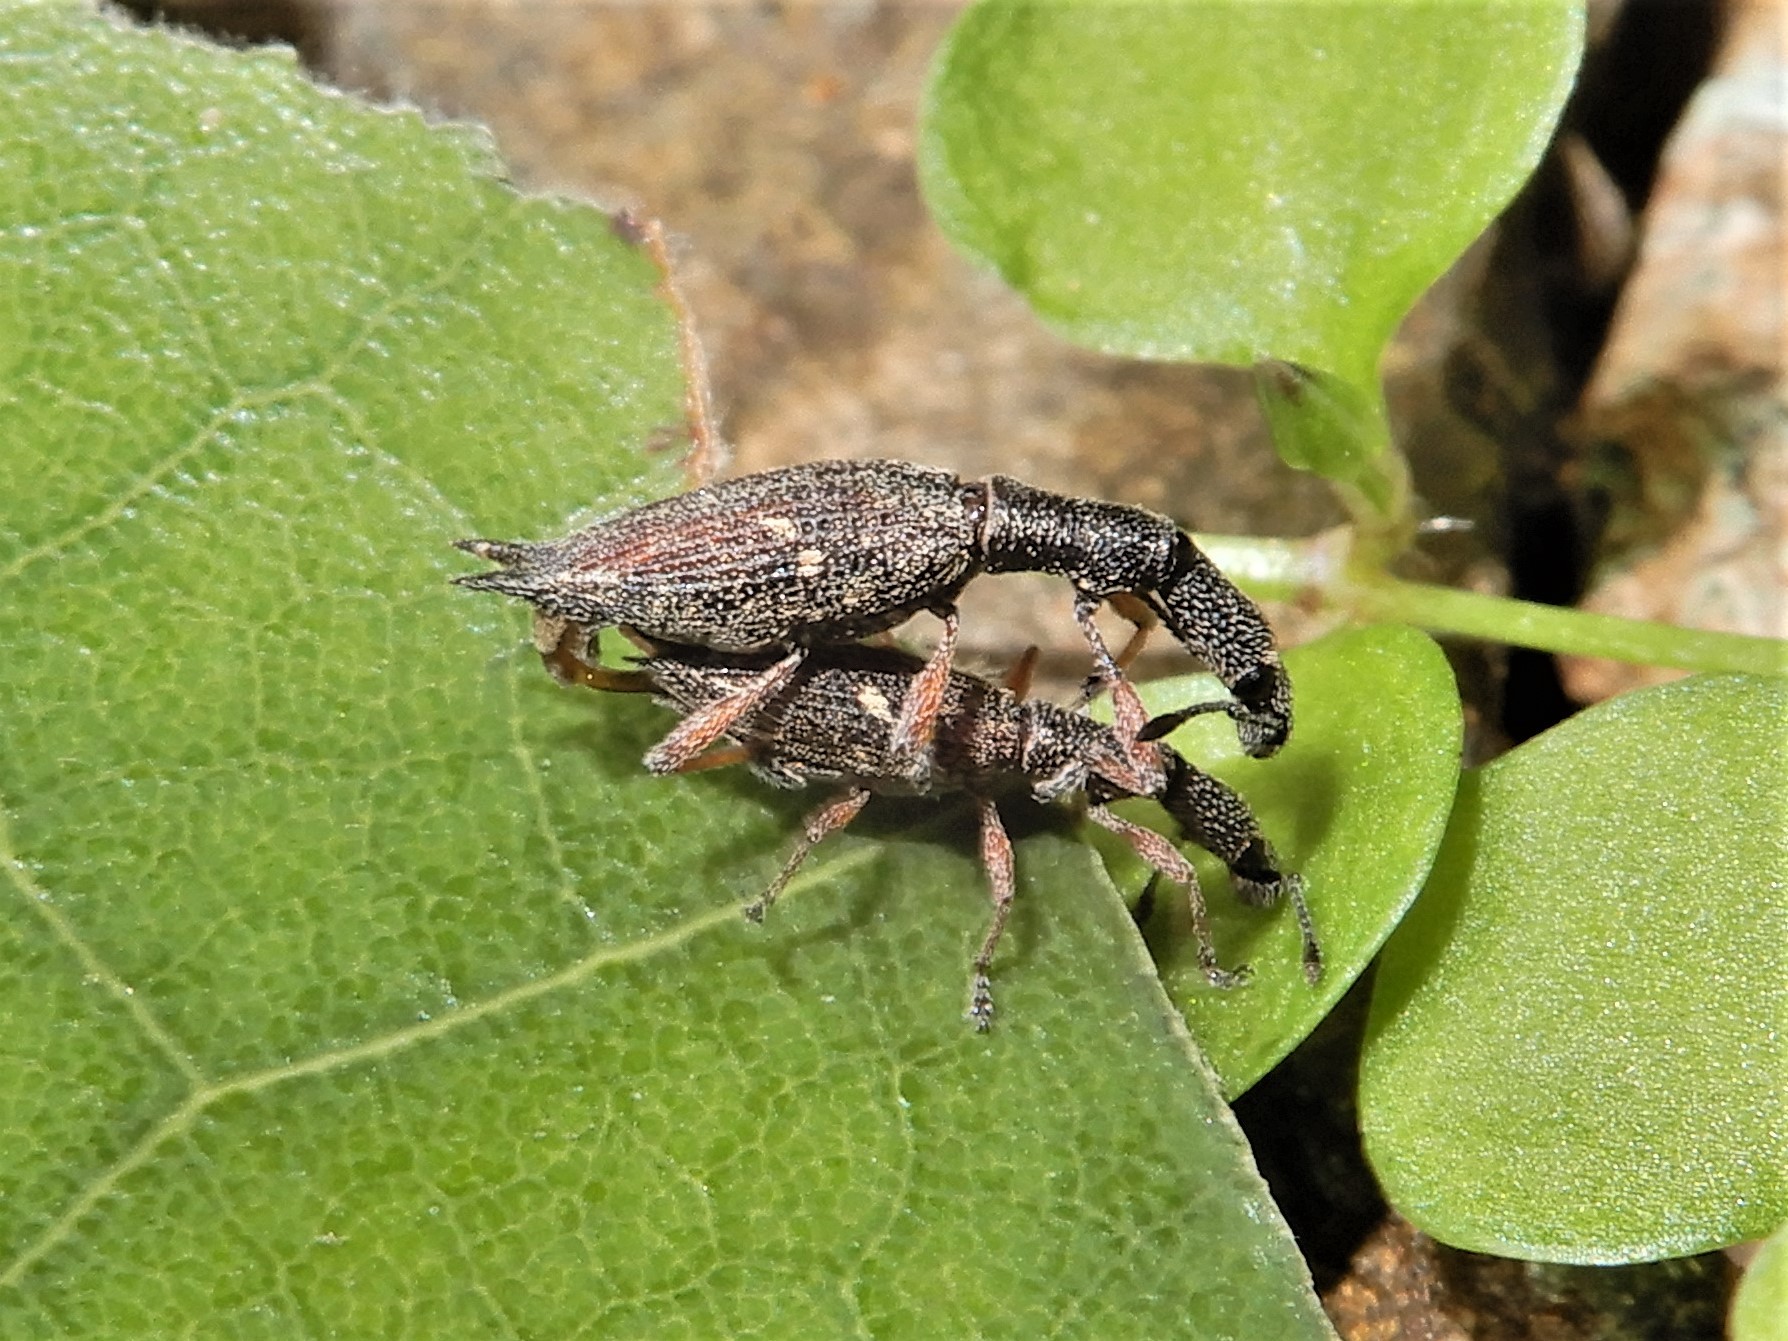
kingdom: Animalia
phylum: Arthropoda
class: Insecta
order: Coleoptera
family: Curculionidae
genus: Rhadinosomus
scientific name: Rhadinosomus acuminatus
